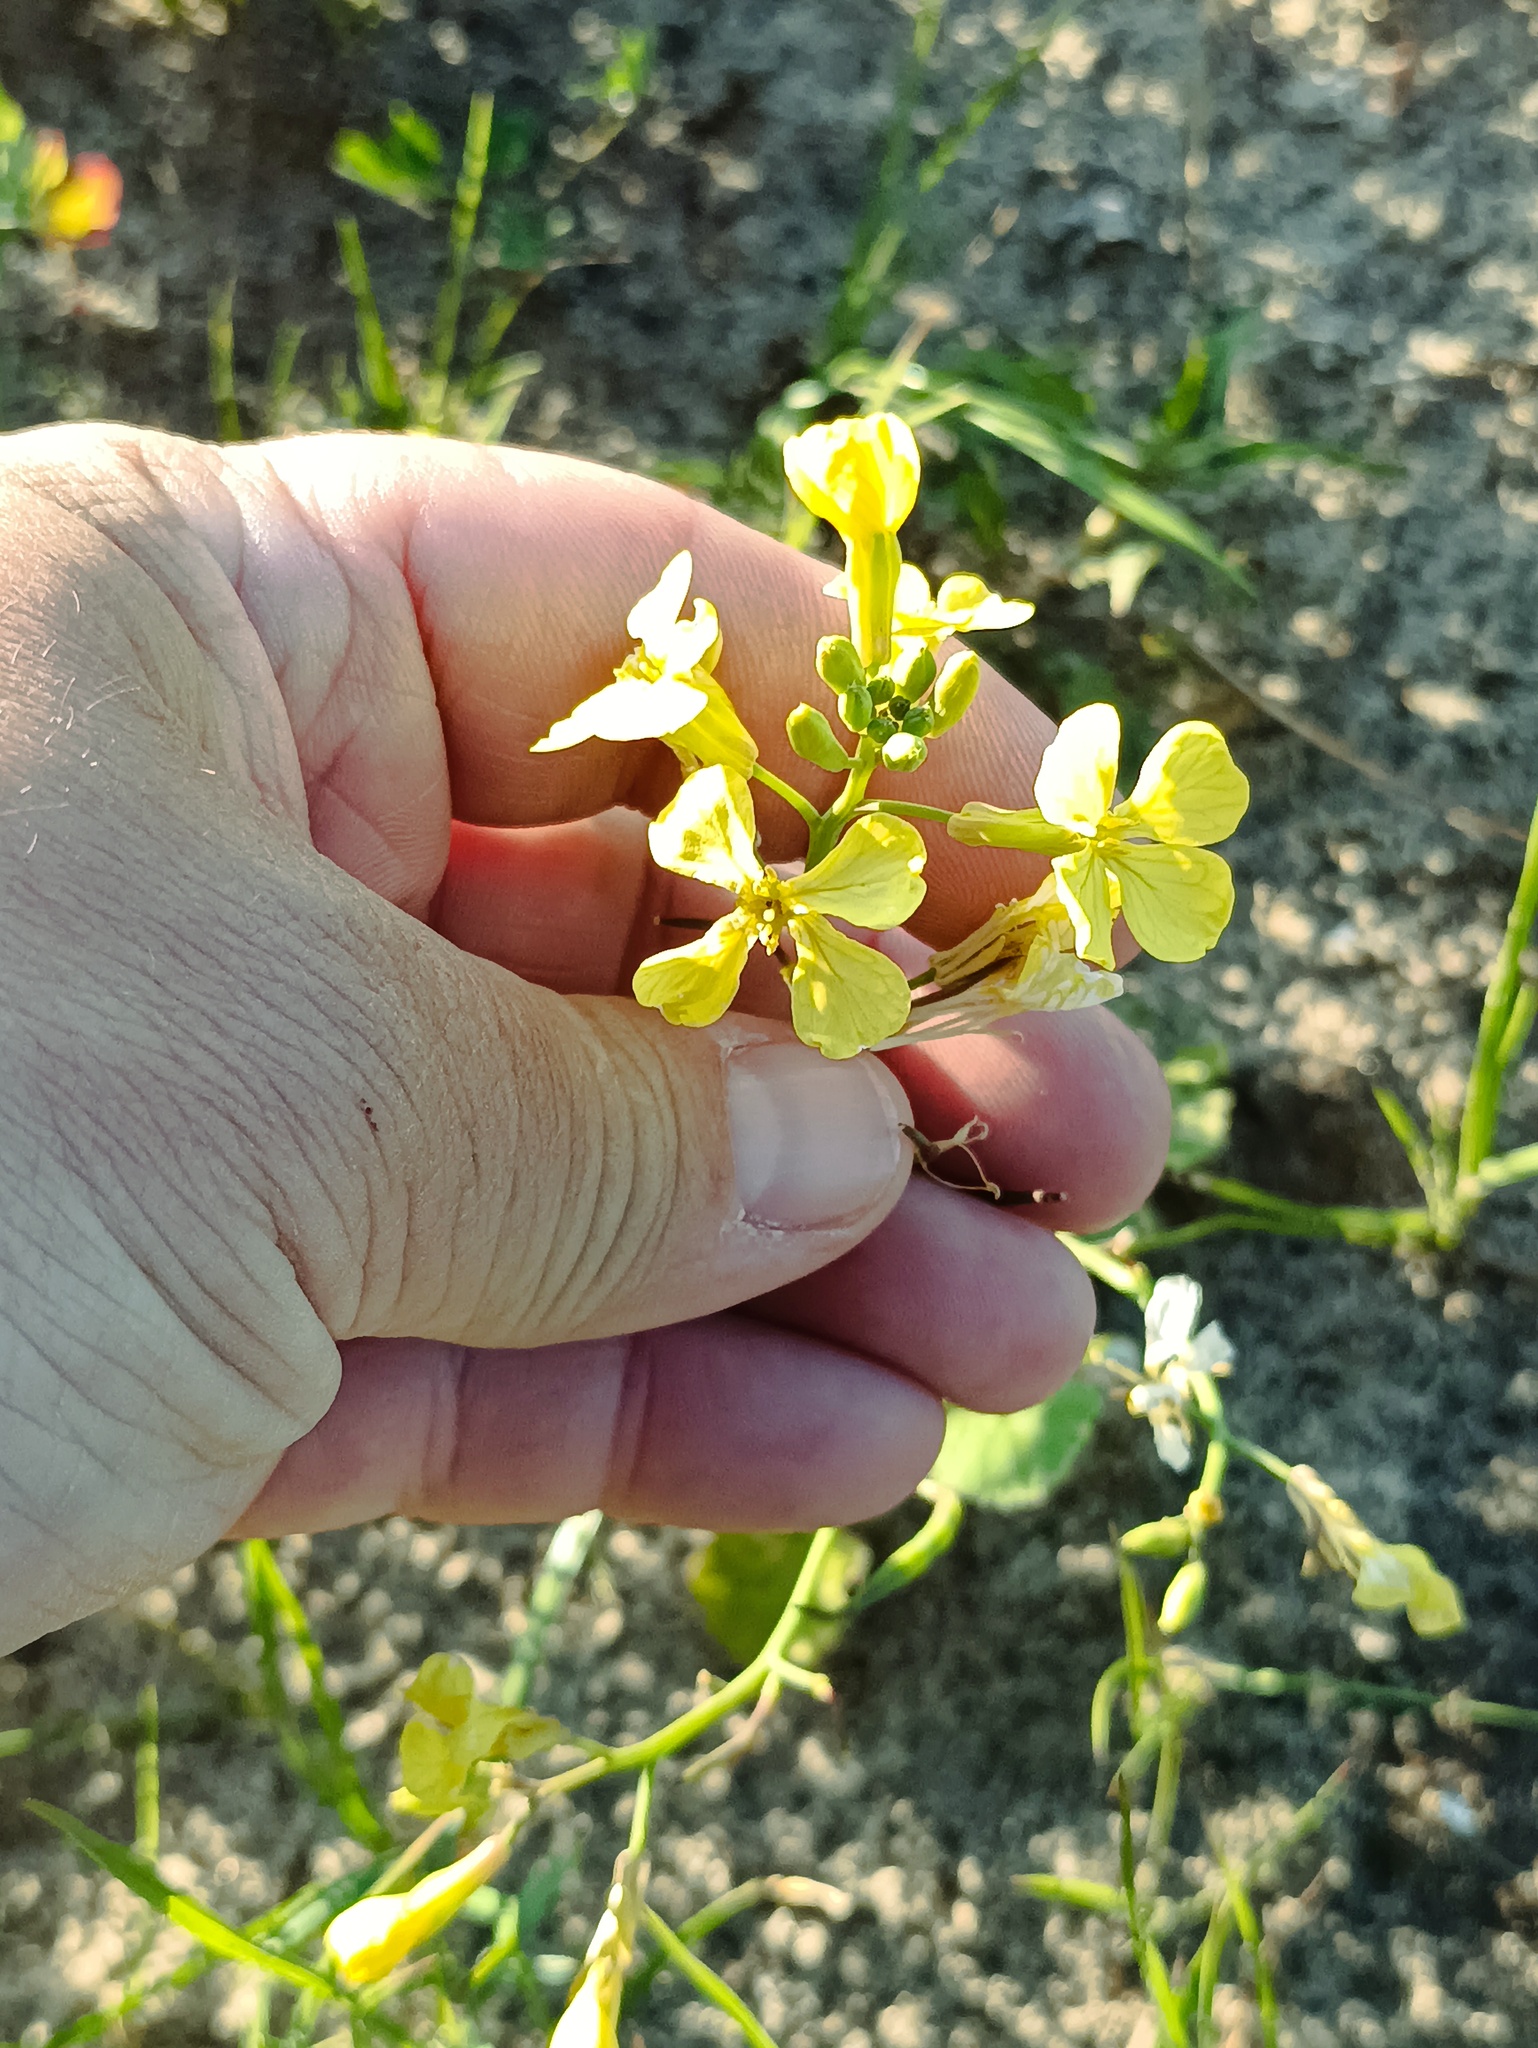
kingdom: Plantae
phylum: Tracheophyta
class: Magnoliopsida
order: Brassicales
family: Brassicaceae
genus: Raphanus
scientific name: Raphanus raphanistrum
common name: Wild radish
